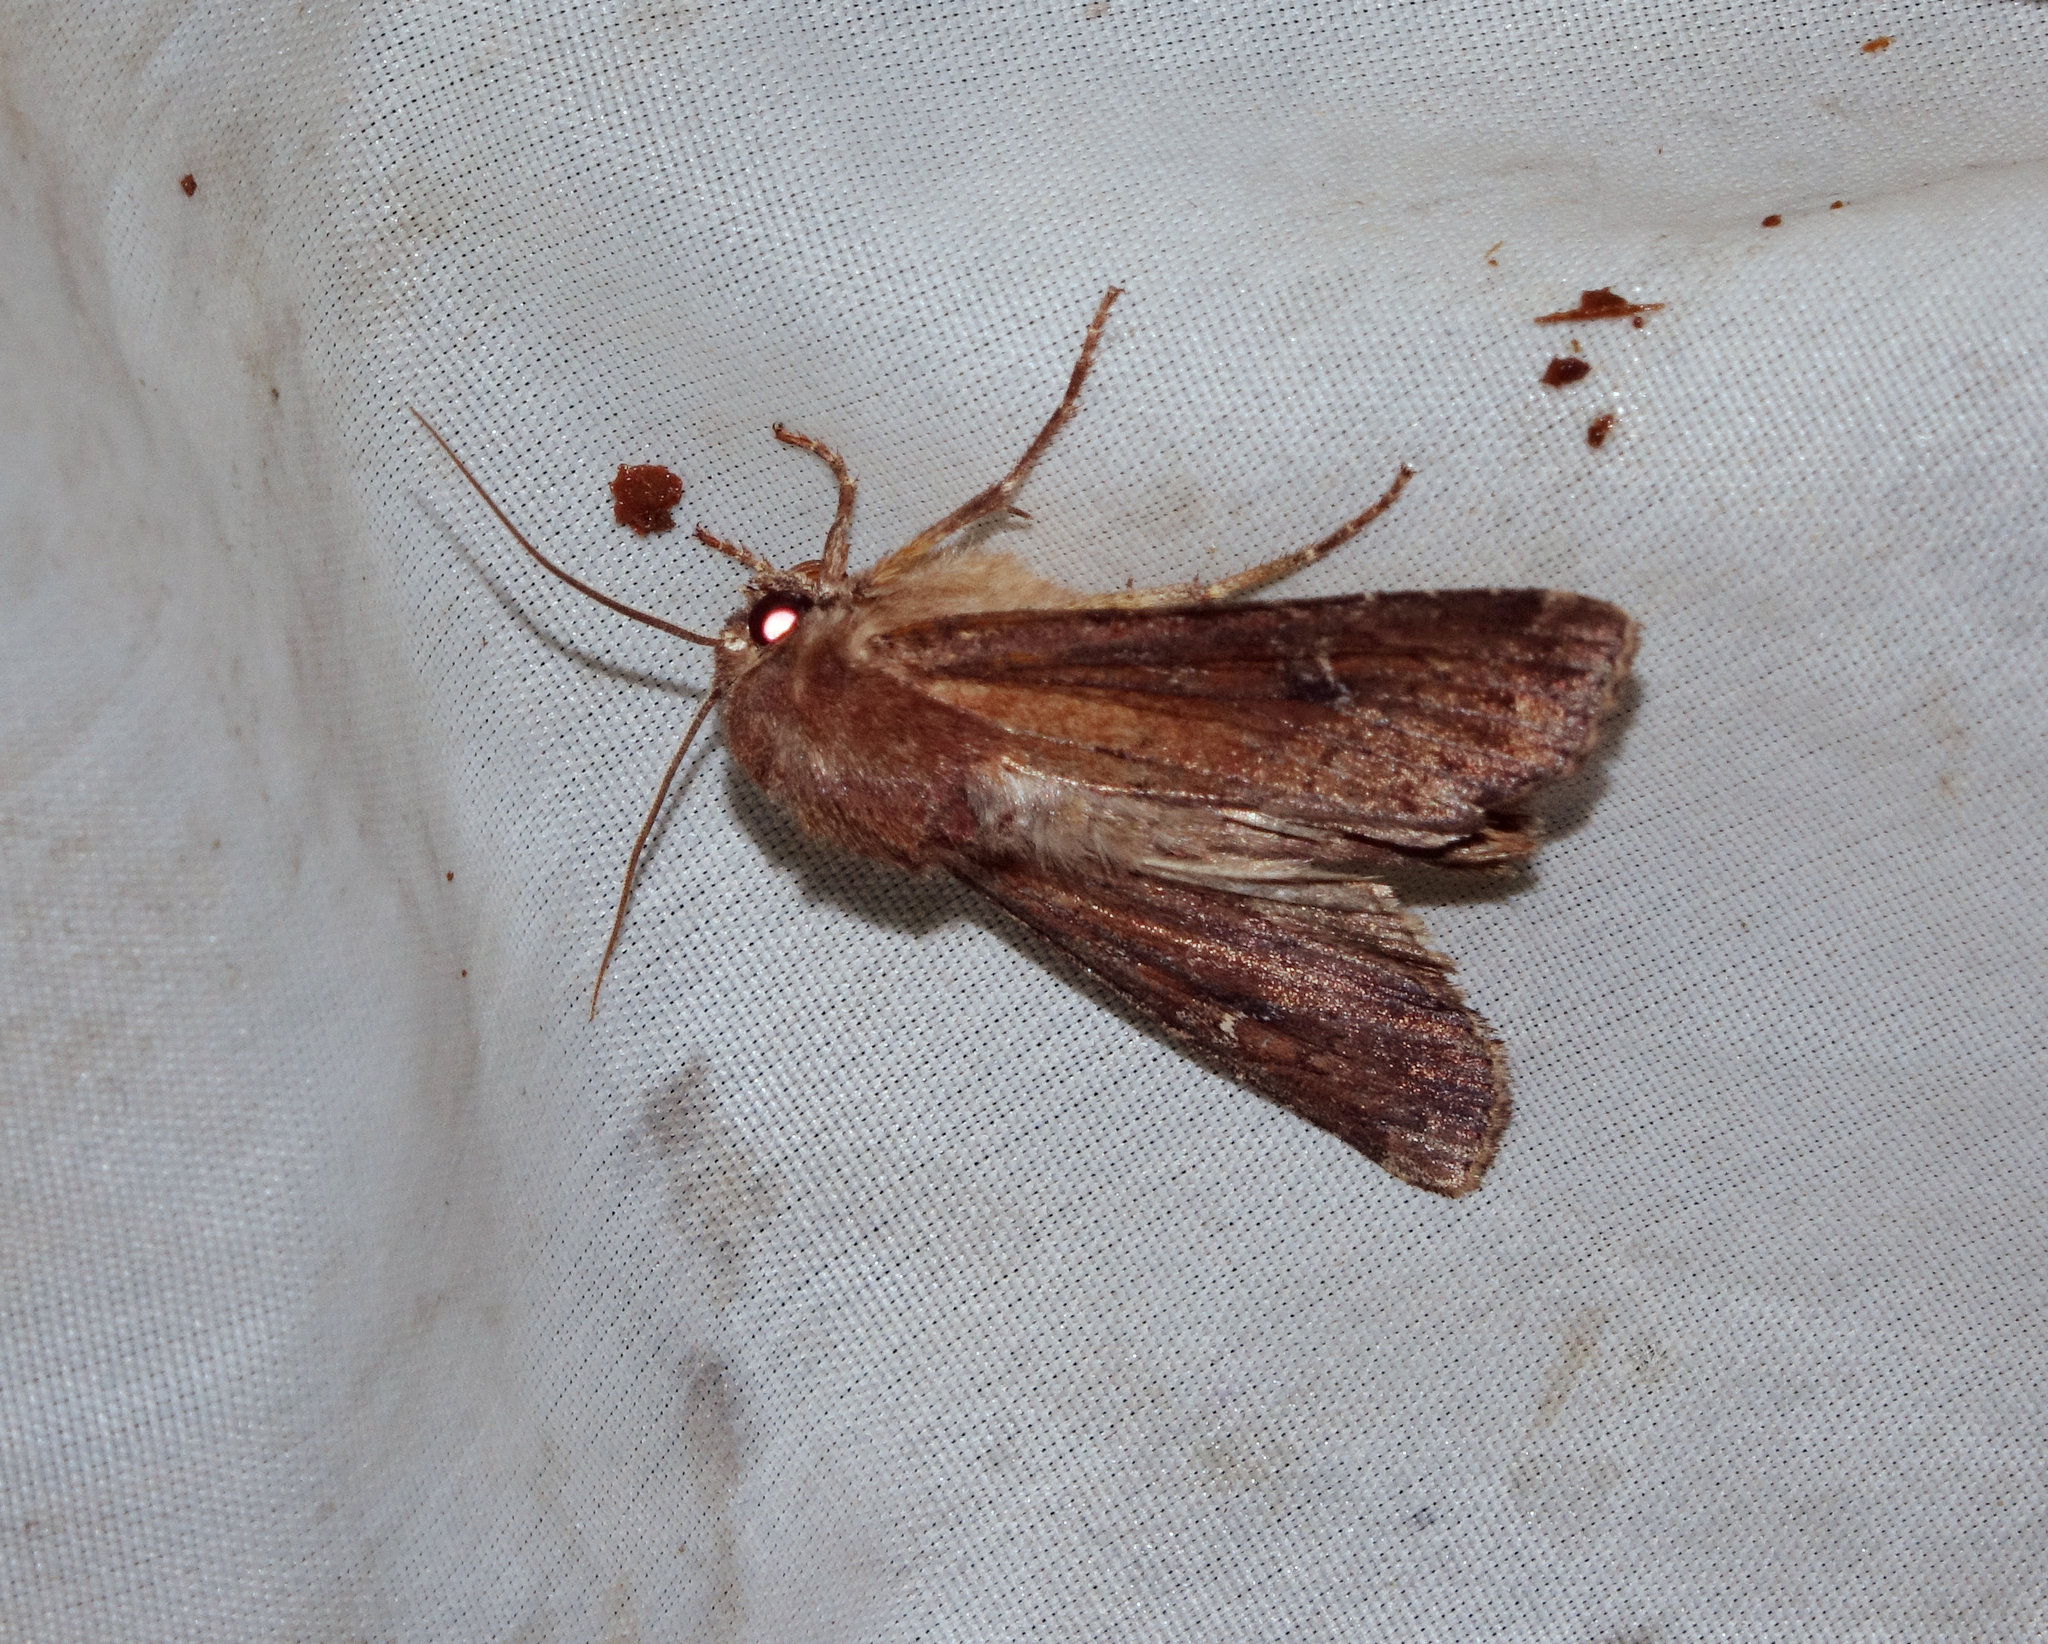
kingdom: Animalia
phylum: Arthropoda
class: Insecta
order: Lepidoptera
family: Noctuidae
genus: Apamea
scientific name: Apamea lateritia
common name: Scarce brindle
